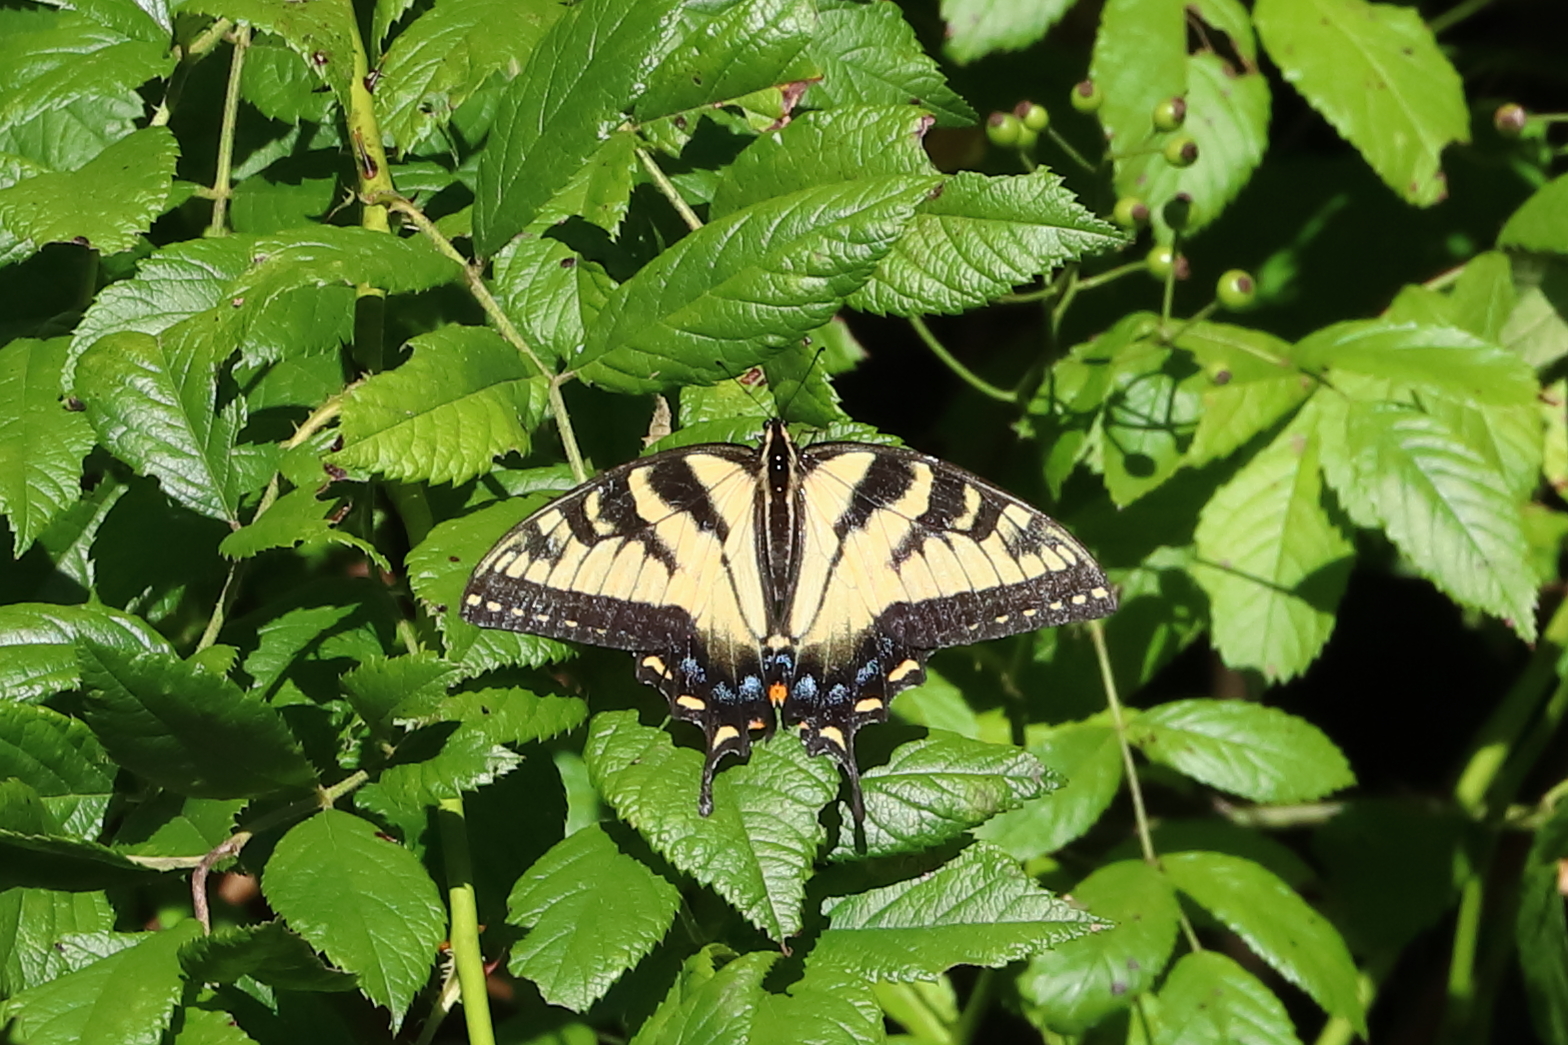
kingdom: Animalia
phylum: Arthropoda
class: Insecta
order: Lepidoptera
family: Papilionidae
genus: Papilio
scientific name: Papilio glaucus
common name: Tiger swallowtail
